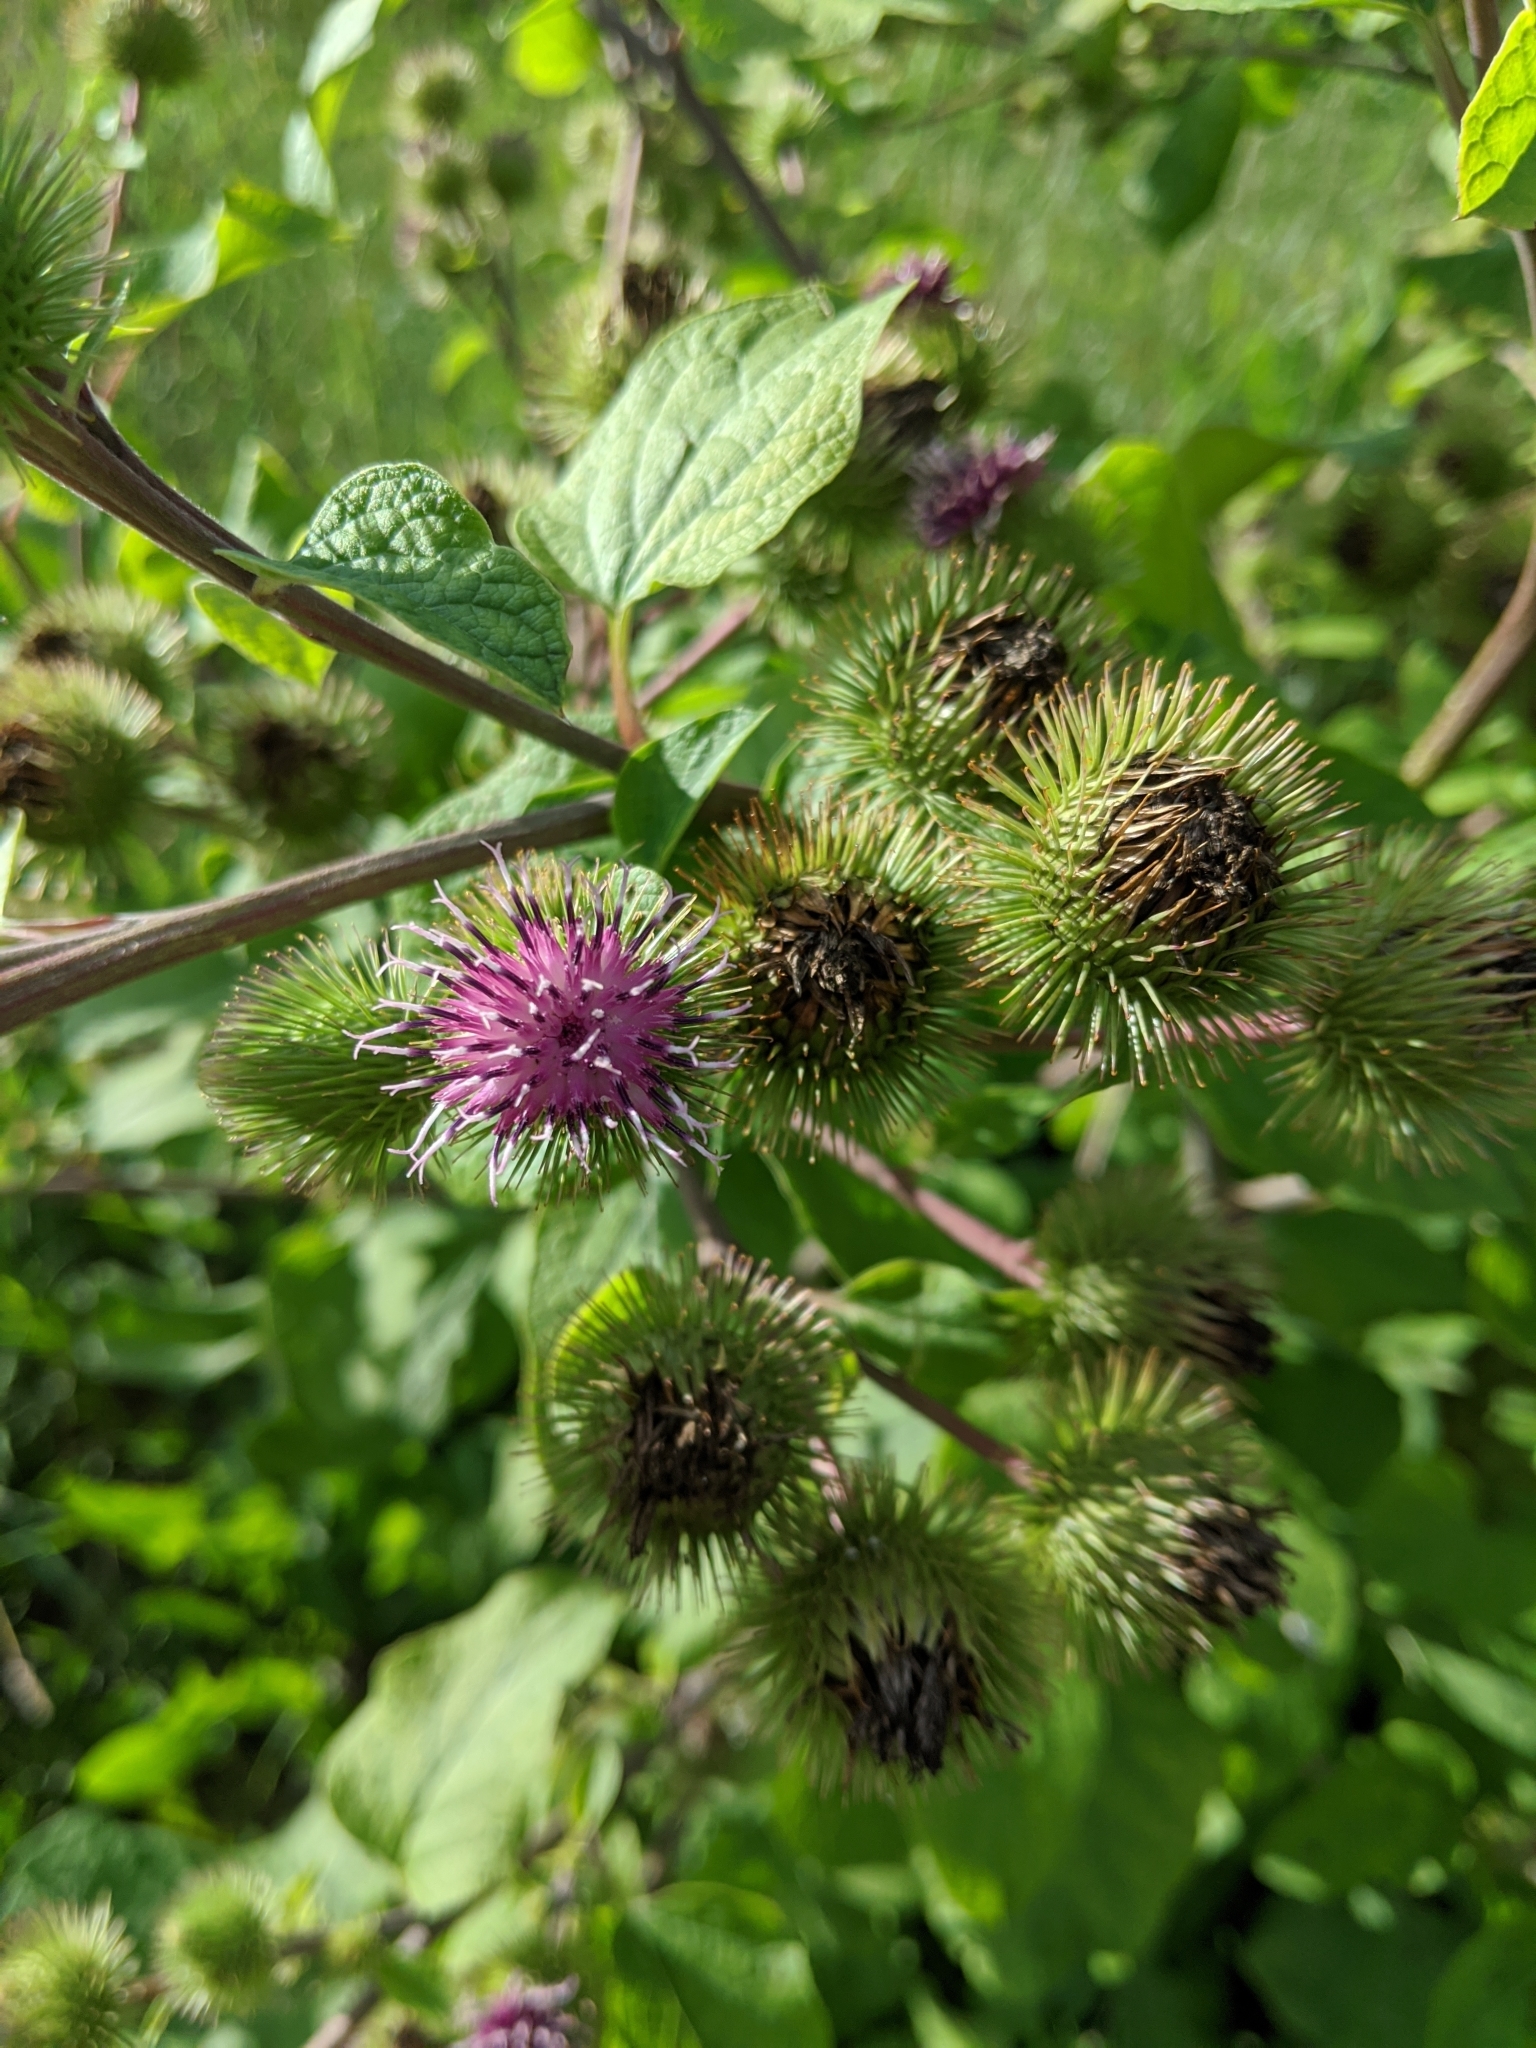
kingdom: Plantae
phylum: Tracheophyta
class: Magnoliopsida
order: Asterales
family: Asteraceae
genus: Arctium
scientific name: Arctium lappa
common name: Greater burdock
